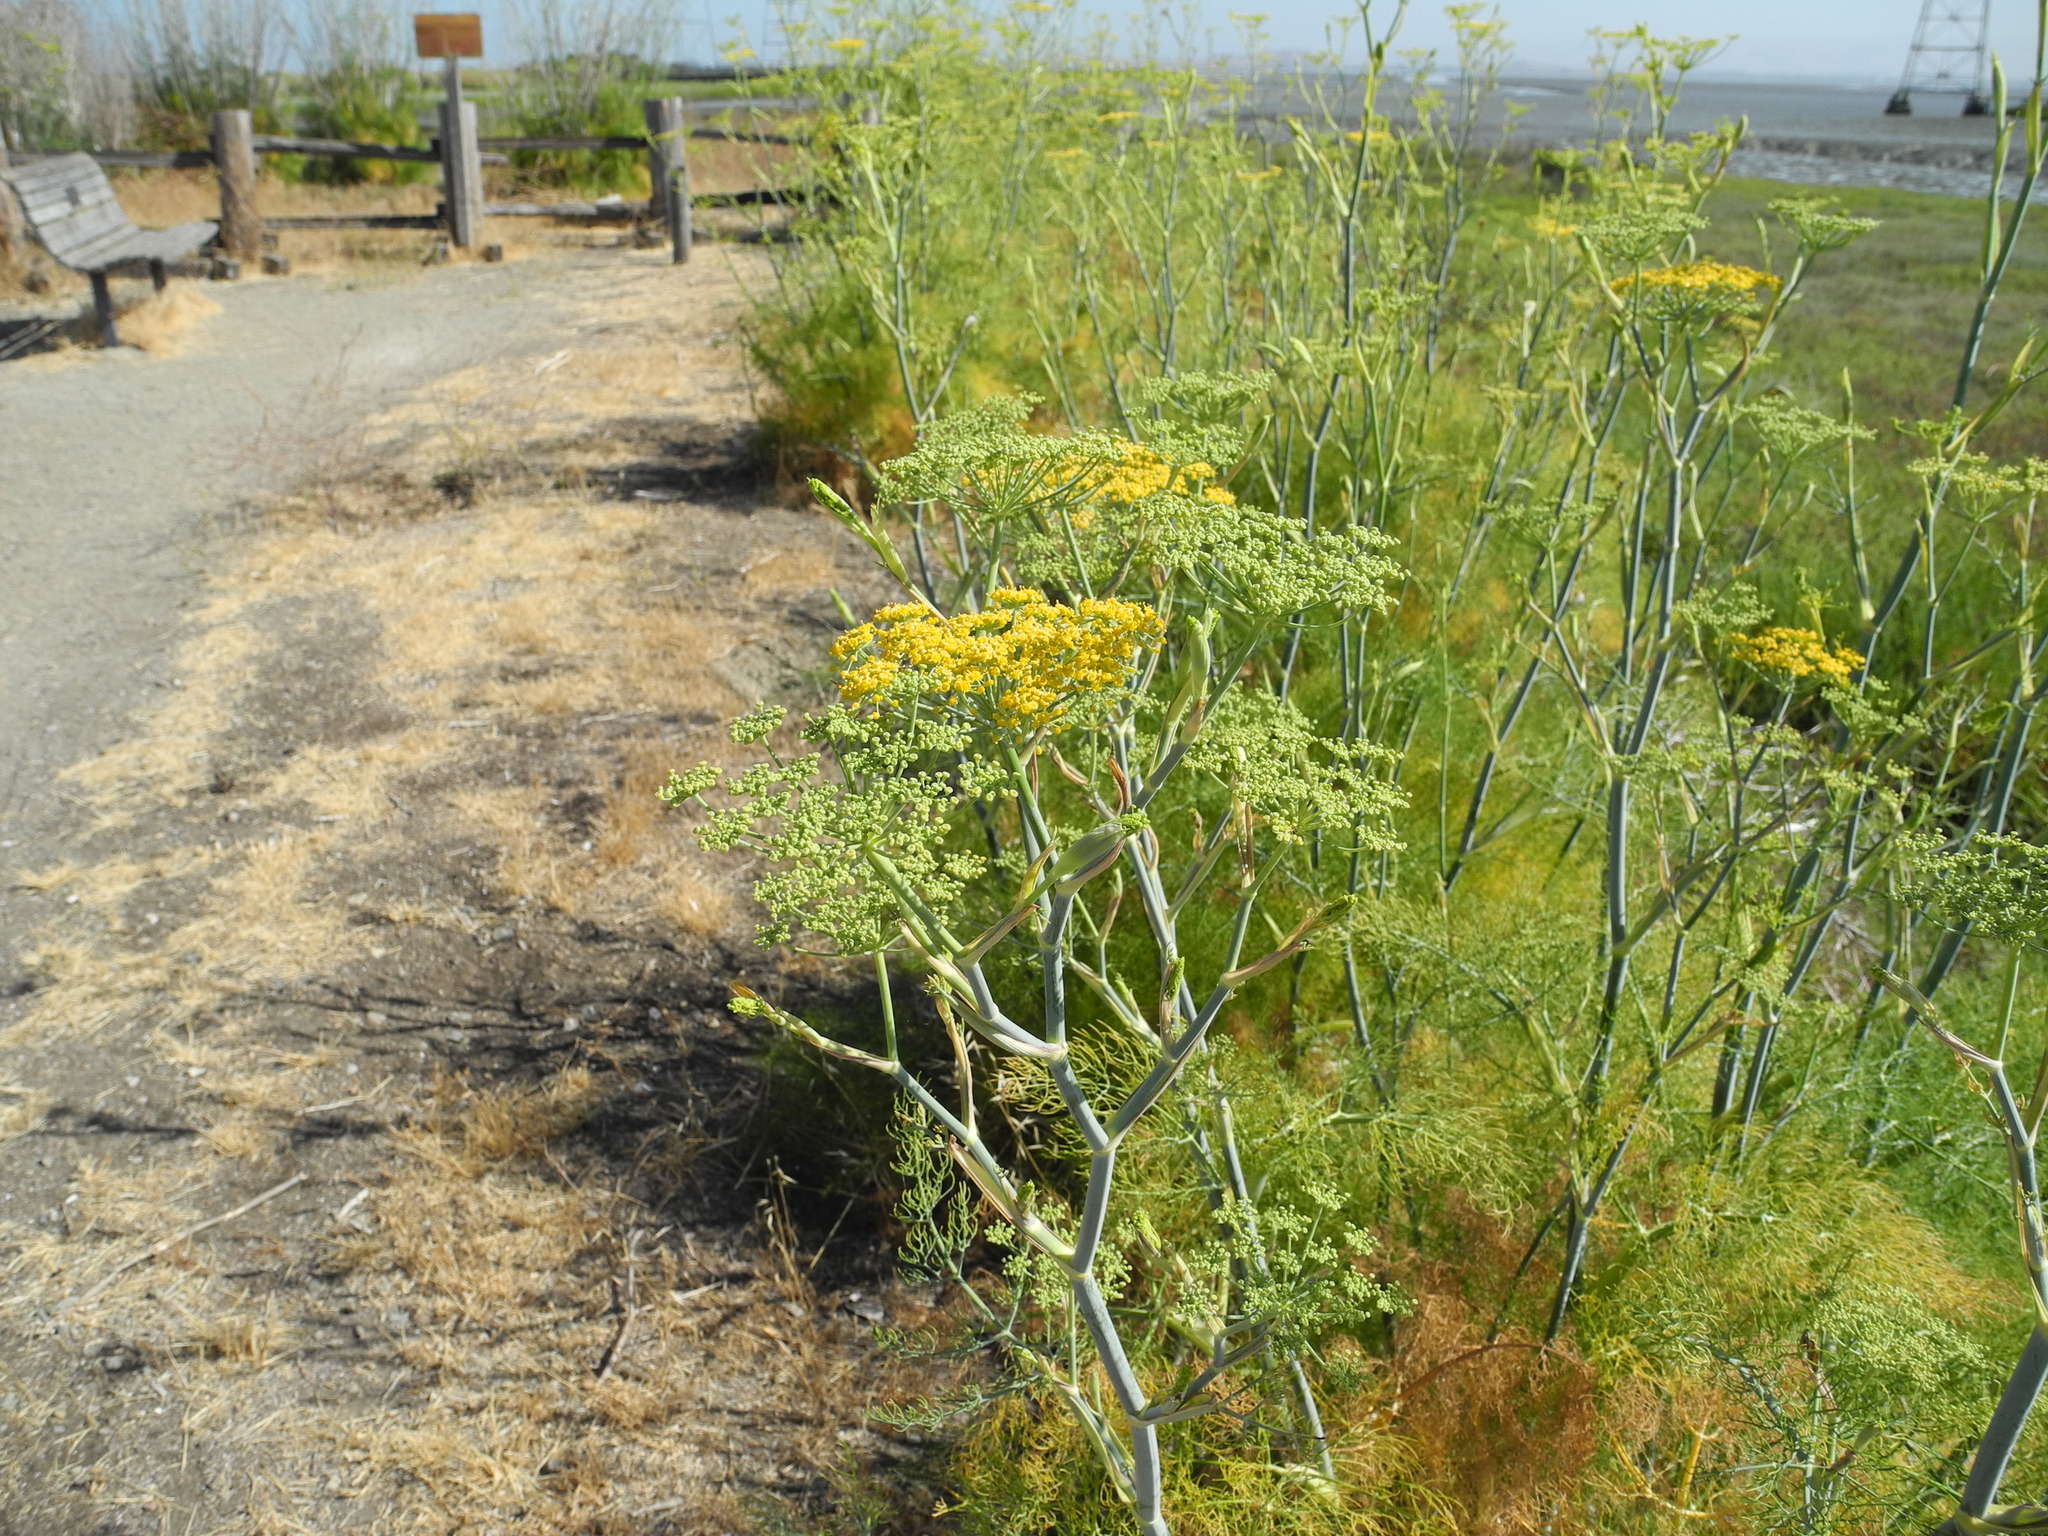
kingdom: Plantae
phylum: Tracheophyta
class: Magnoliopsida
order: Apiales
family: Apiaceae
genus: Foeniculum
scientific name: Foeniculum vulgare
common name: Fennel
